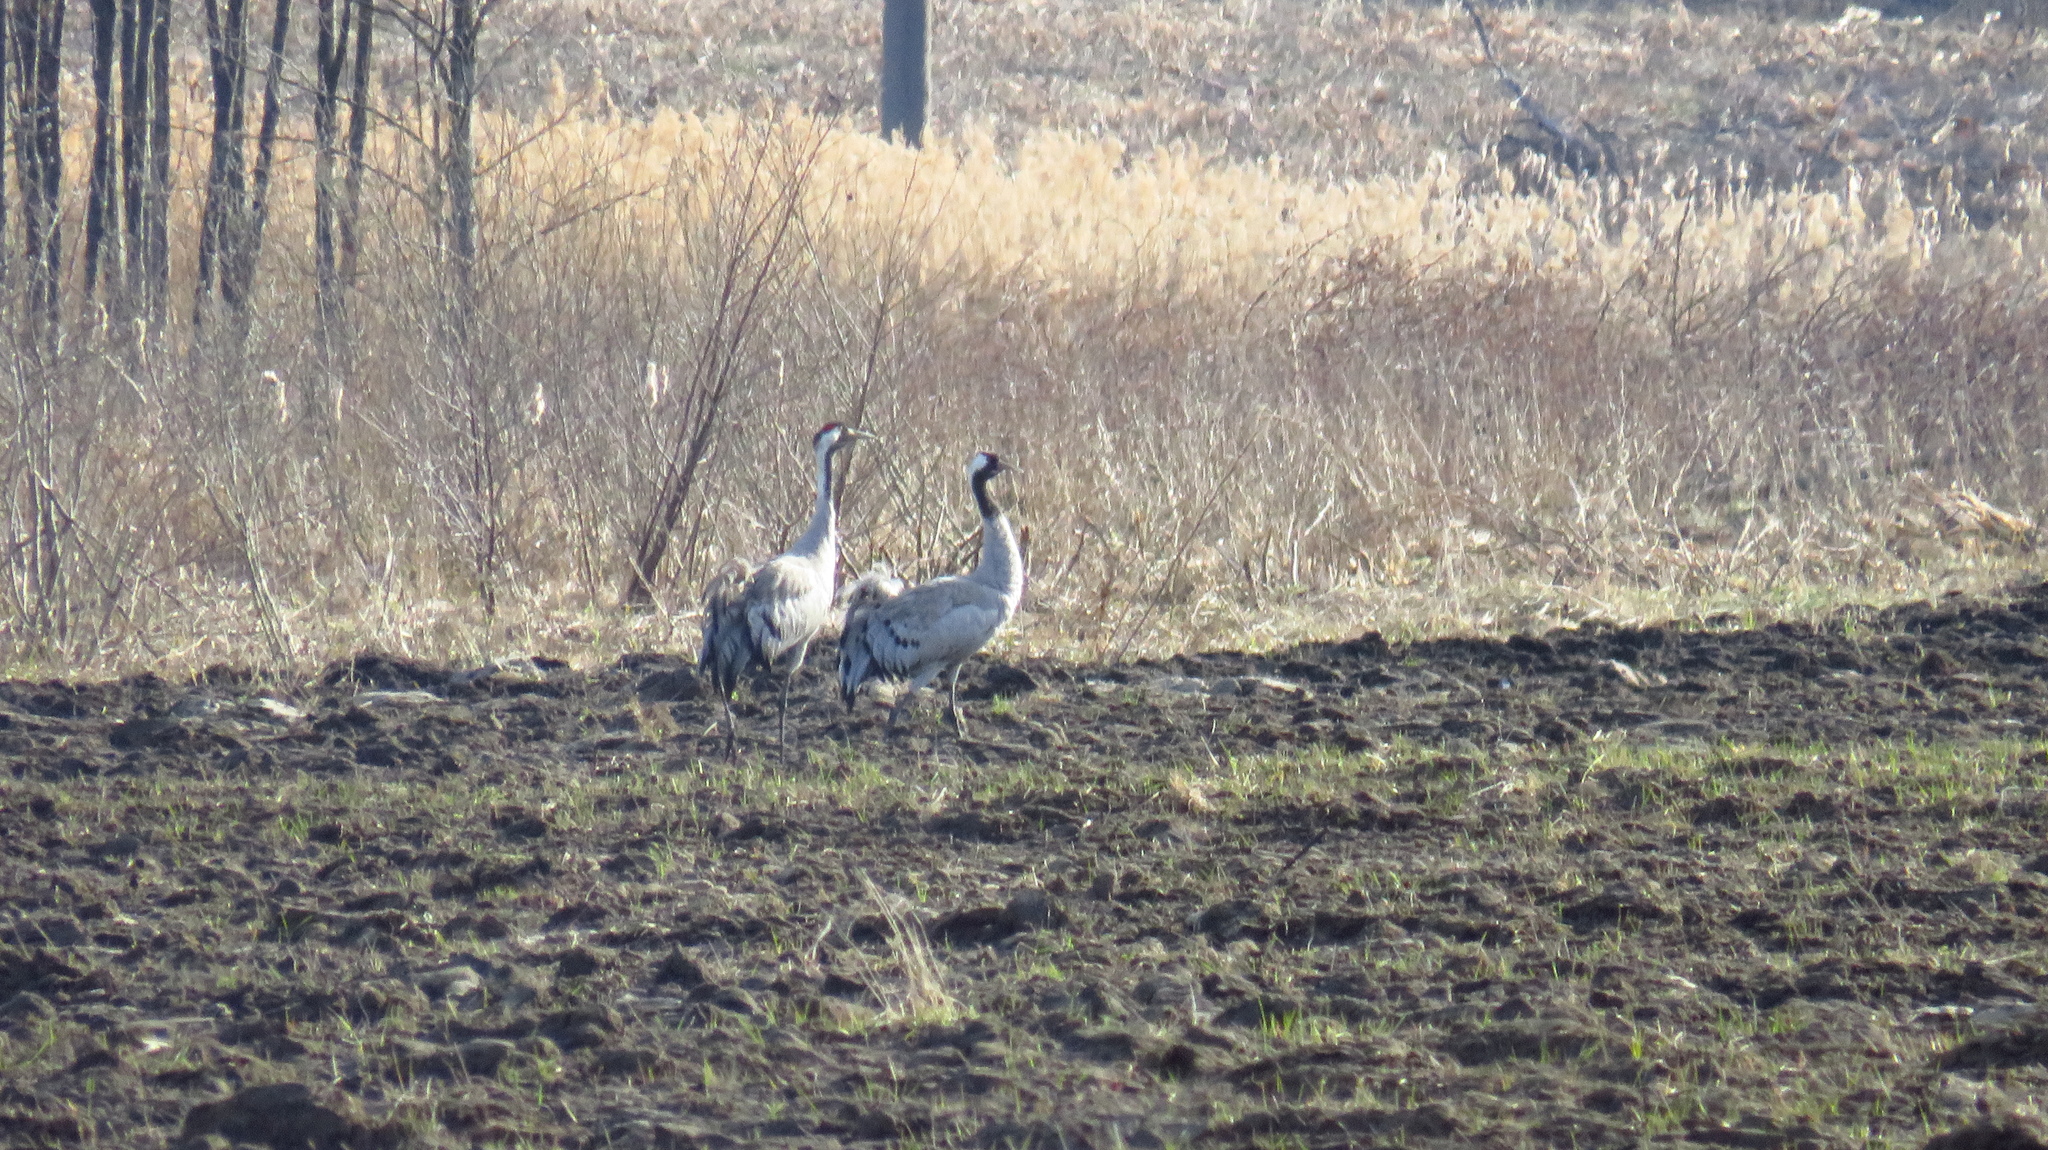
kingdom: Animalia
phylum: Chordata
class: Aves
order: Gruiformes
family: Gruidae
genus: Grus
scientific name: Grus grus
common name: Common crane
